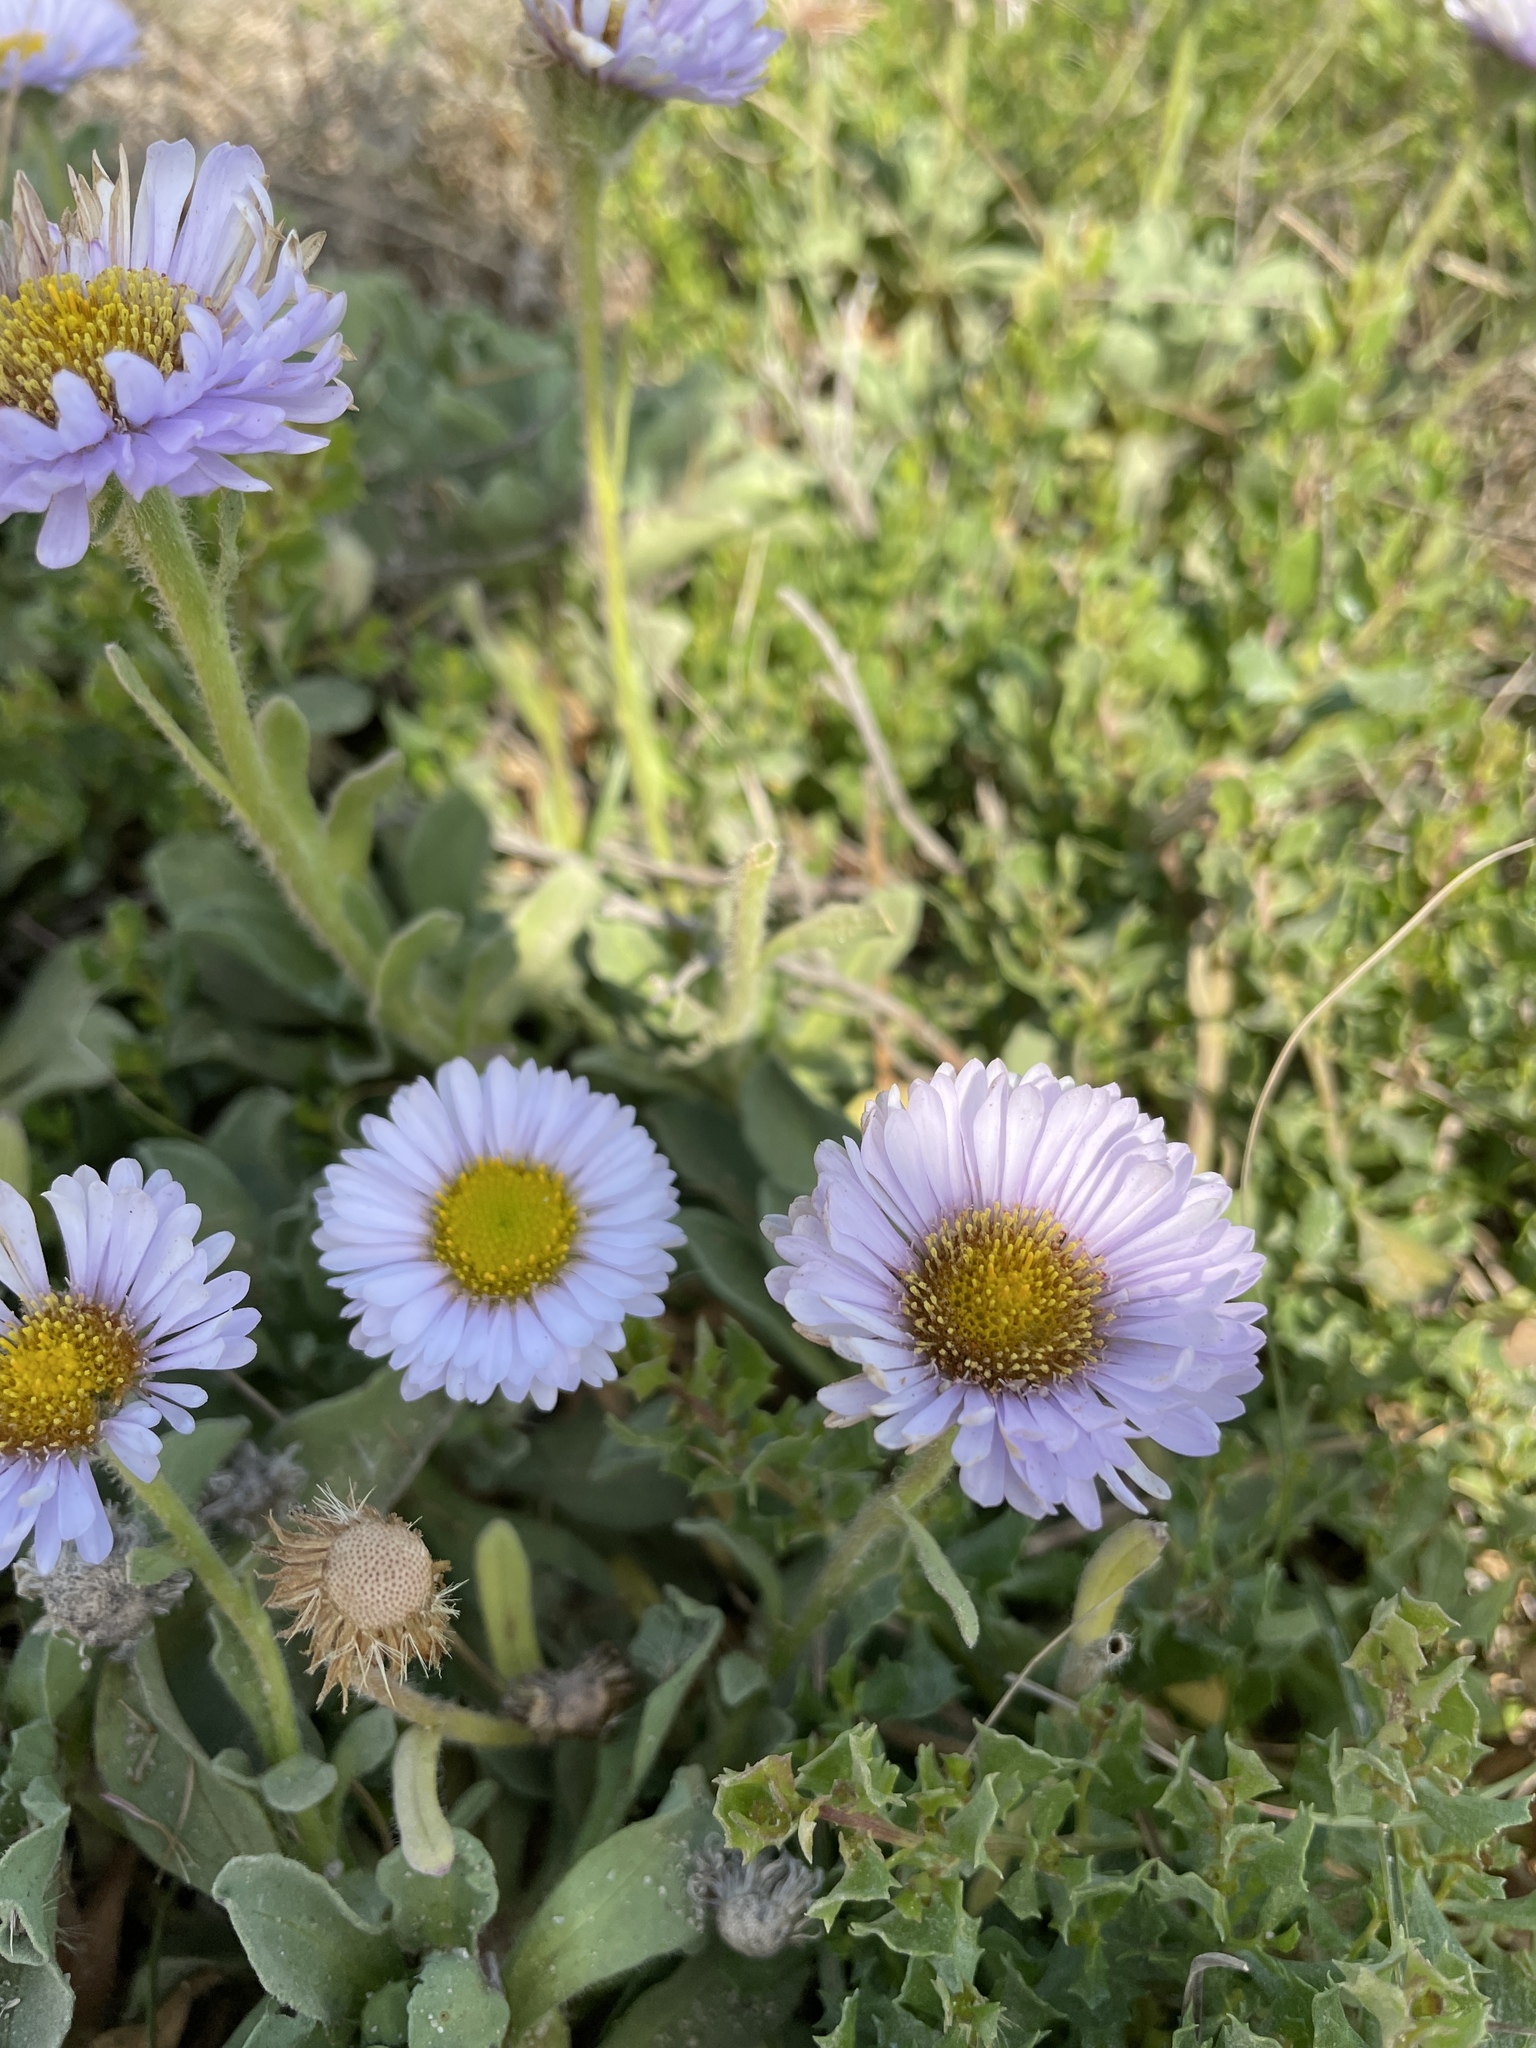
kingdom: Plantae
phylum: Tracheophyta
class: Magnoliopsida
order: Asterales
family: Asteraceae
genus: Erigeron
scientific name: Erigeron glaucus
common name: Seaside daisy
